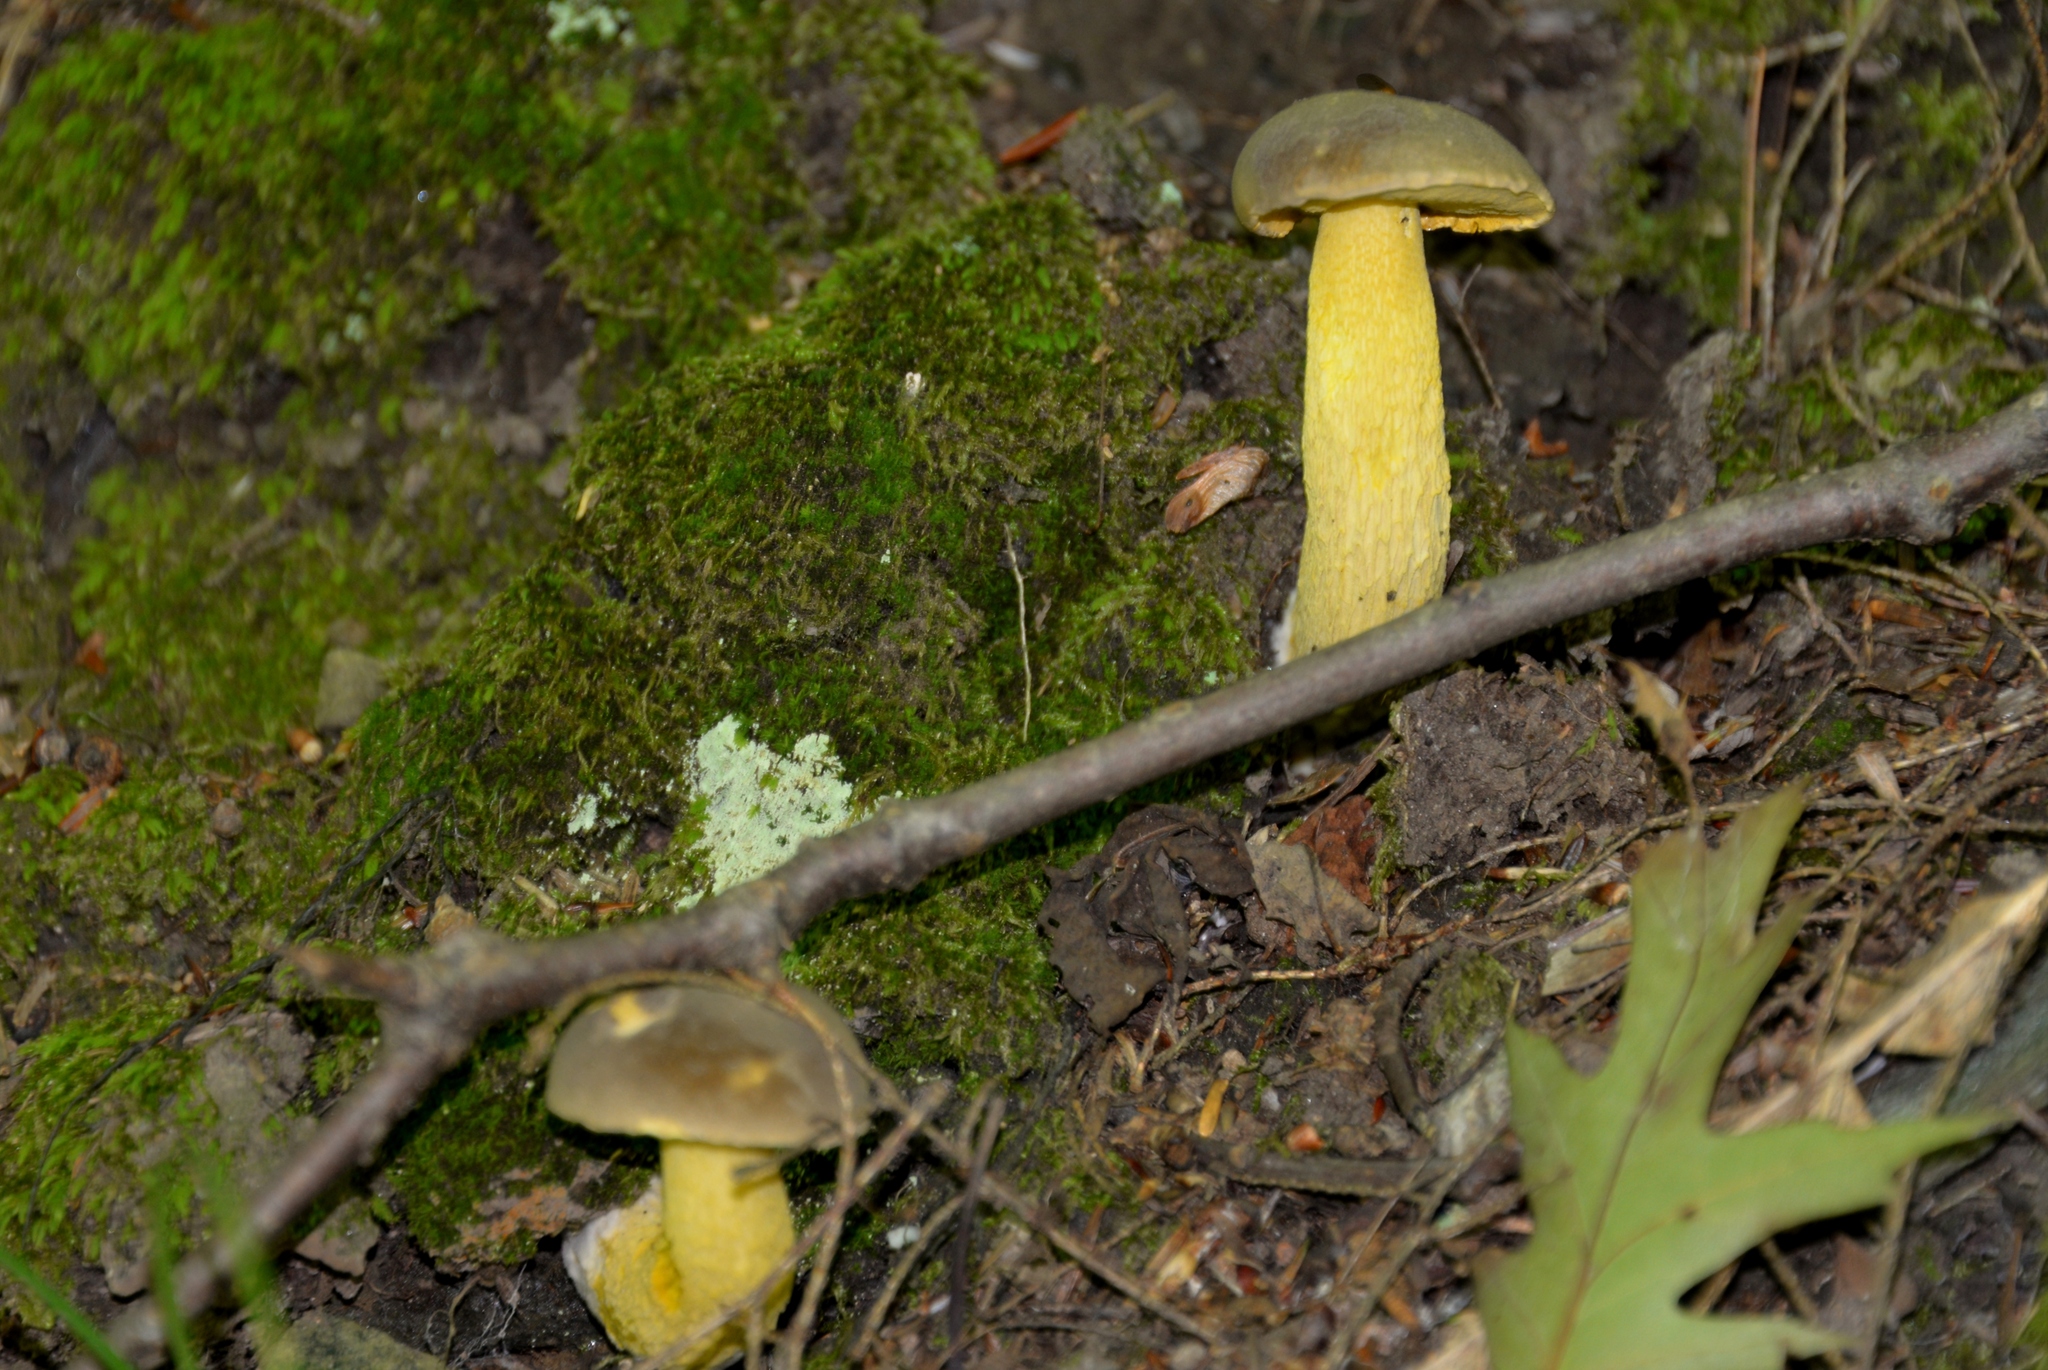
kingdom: Fungi
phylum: Basidiomycota
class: Agaricomycetes
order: Boletales
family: Boletaceae
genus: Retiboletus
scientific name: Retiboletus ornatipes
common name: Ornate-stalked bolete
